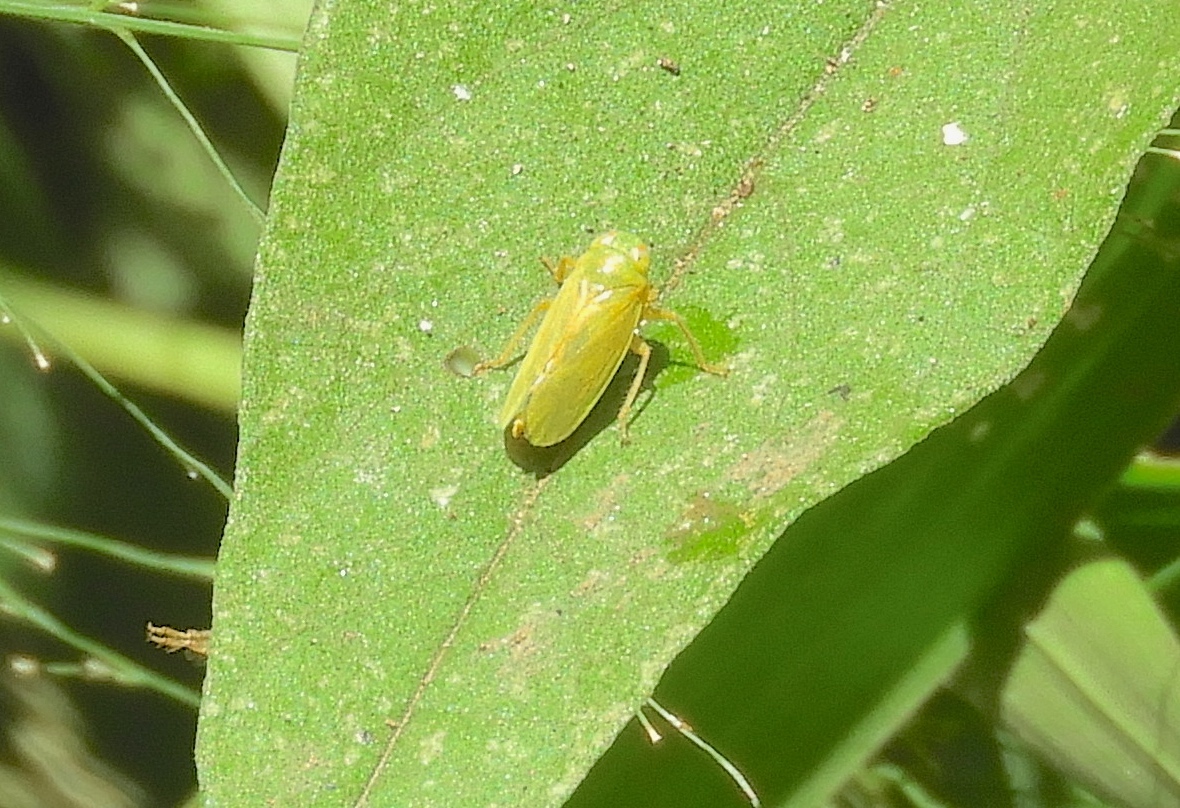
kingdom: Animalia
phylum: Arthropoda
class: Insecta
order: Hemiptera
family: Cicadellidae
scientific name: Cicadellidae
